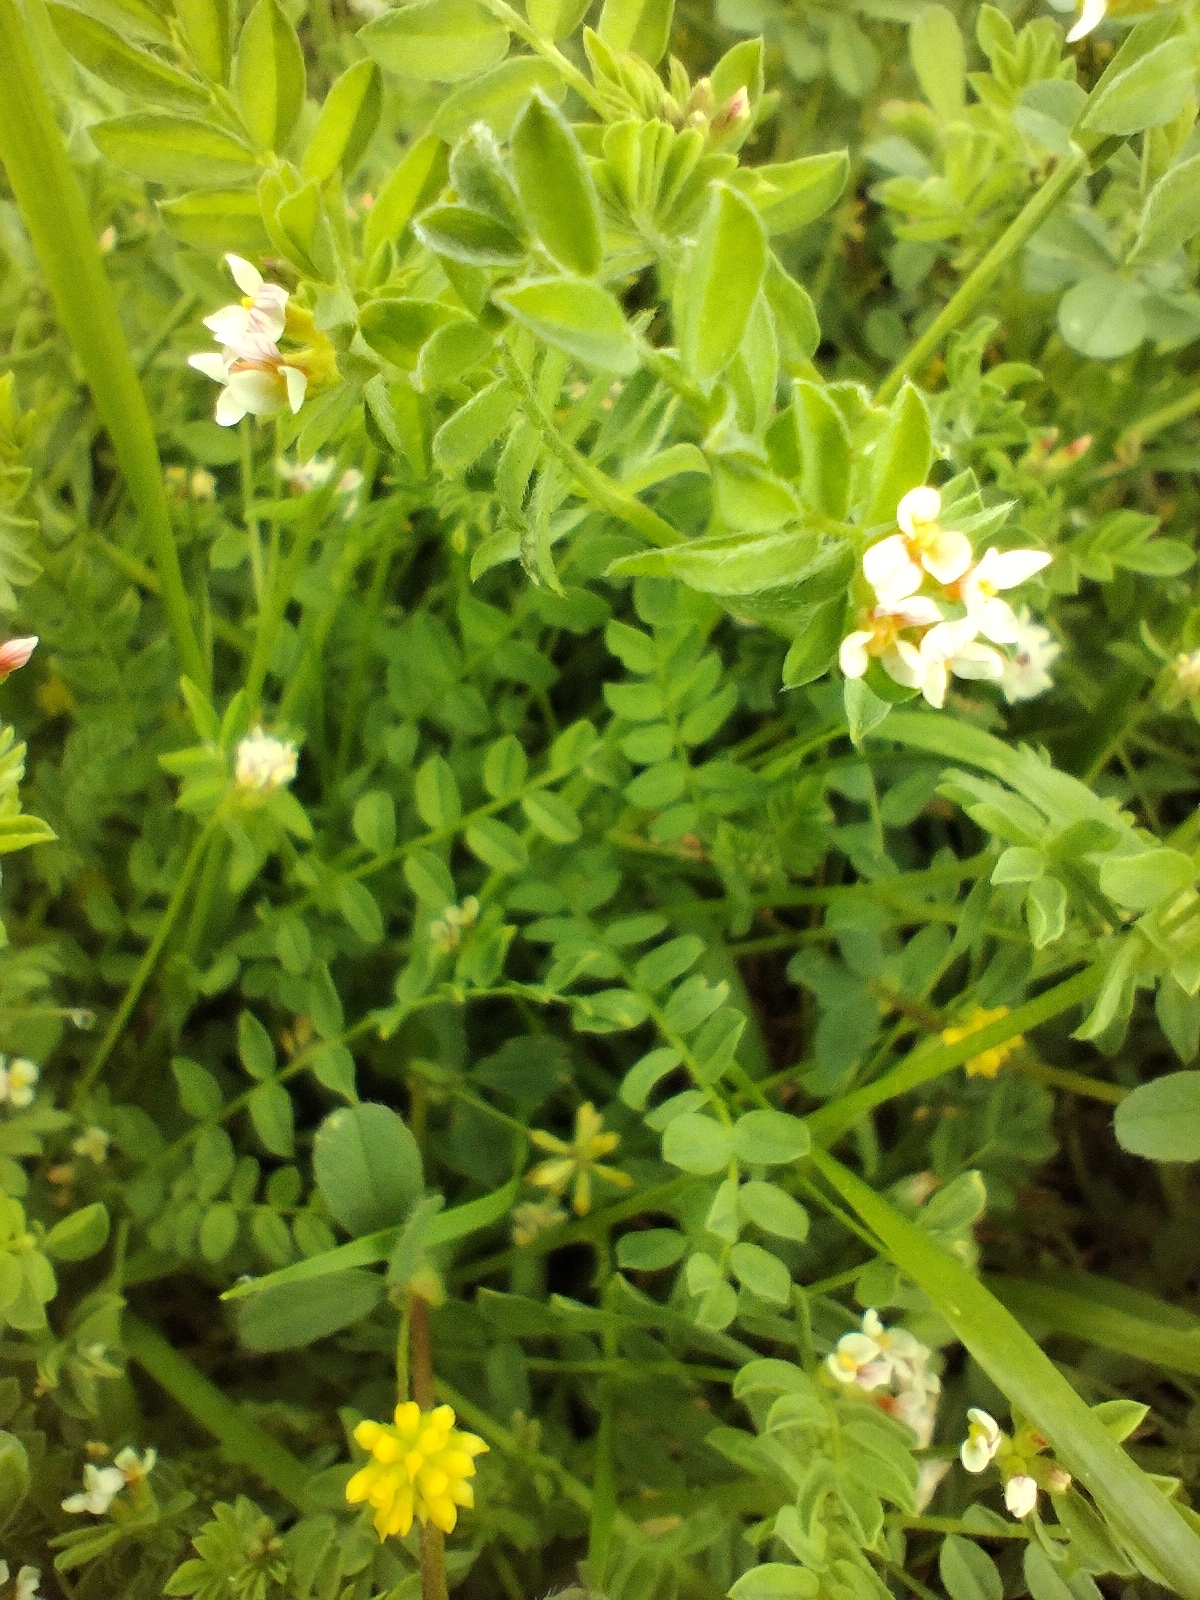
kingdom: Plantae
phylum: Tracheophyta
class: Magnoliopsida
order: Fabales
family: Fabaceae
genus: Ornithopus
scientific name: Ornithopus perpusillus
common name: Bird's-foot
